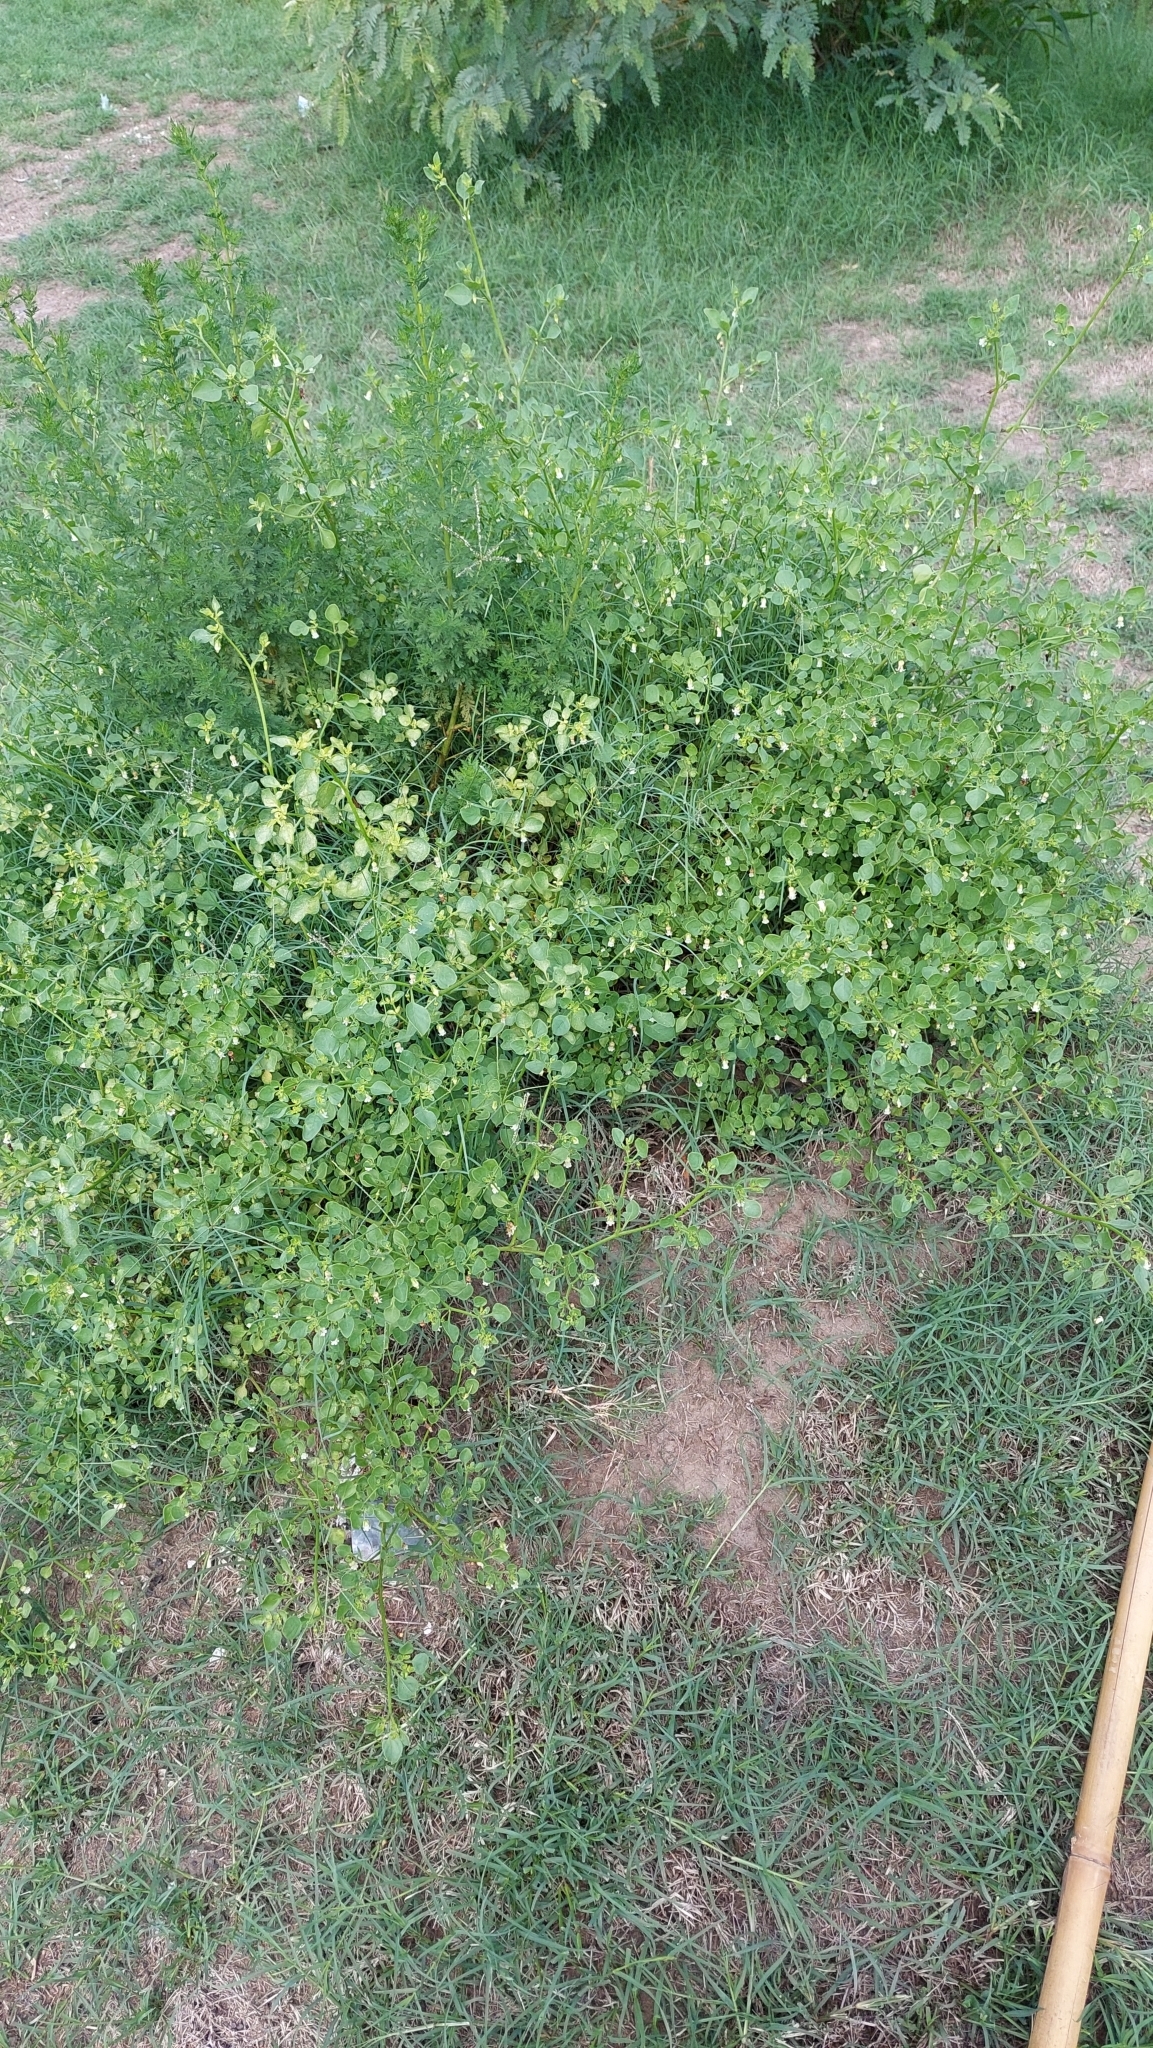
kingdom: Plantae
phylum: Tracheophyta
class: Magnoliopsida
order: Solanales
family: Solanaceae
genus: Salpichroa
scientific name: Salpichroa origanifolia
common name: Lily-of-the-valley-vine
